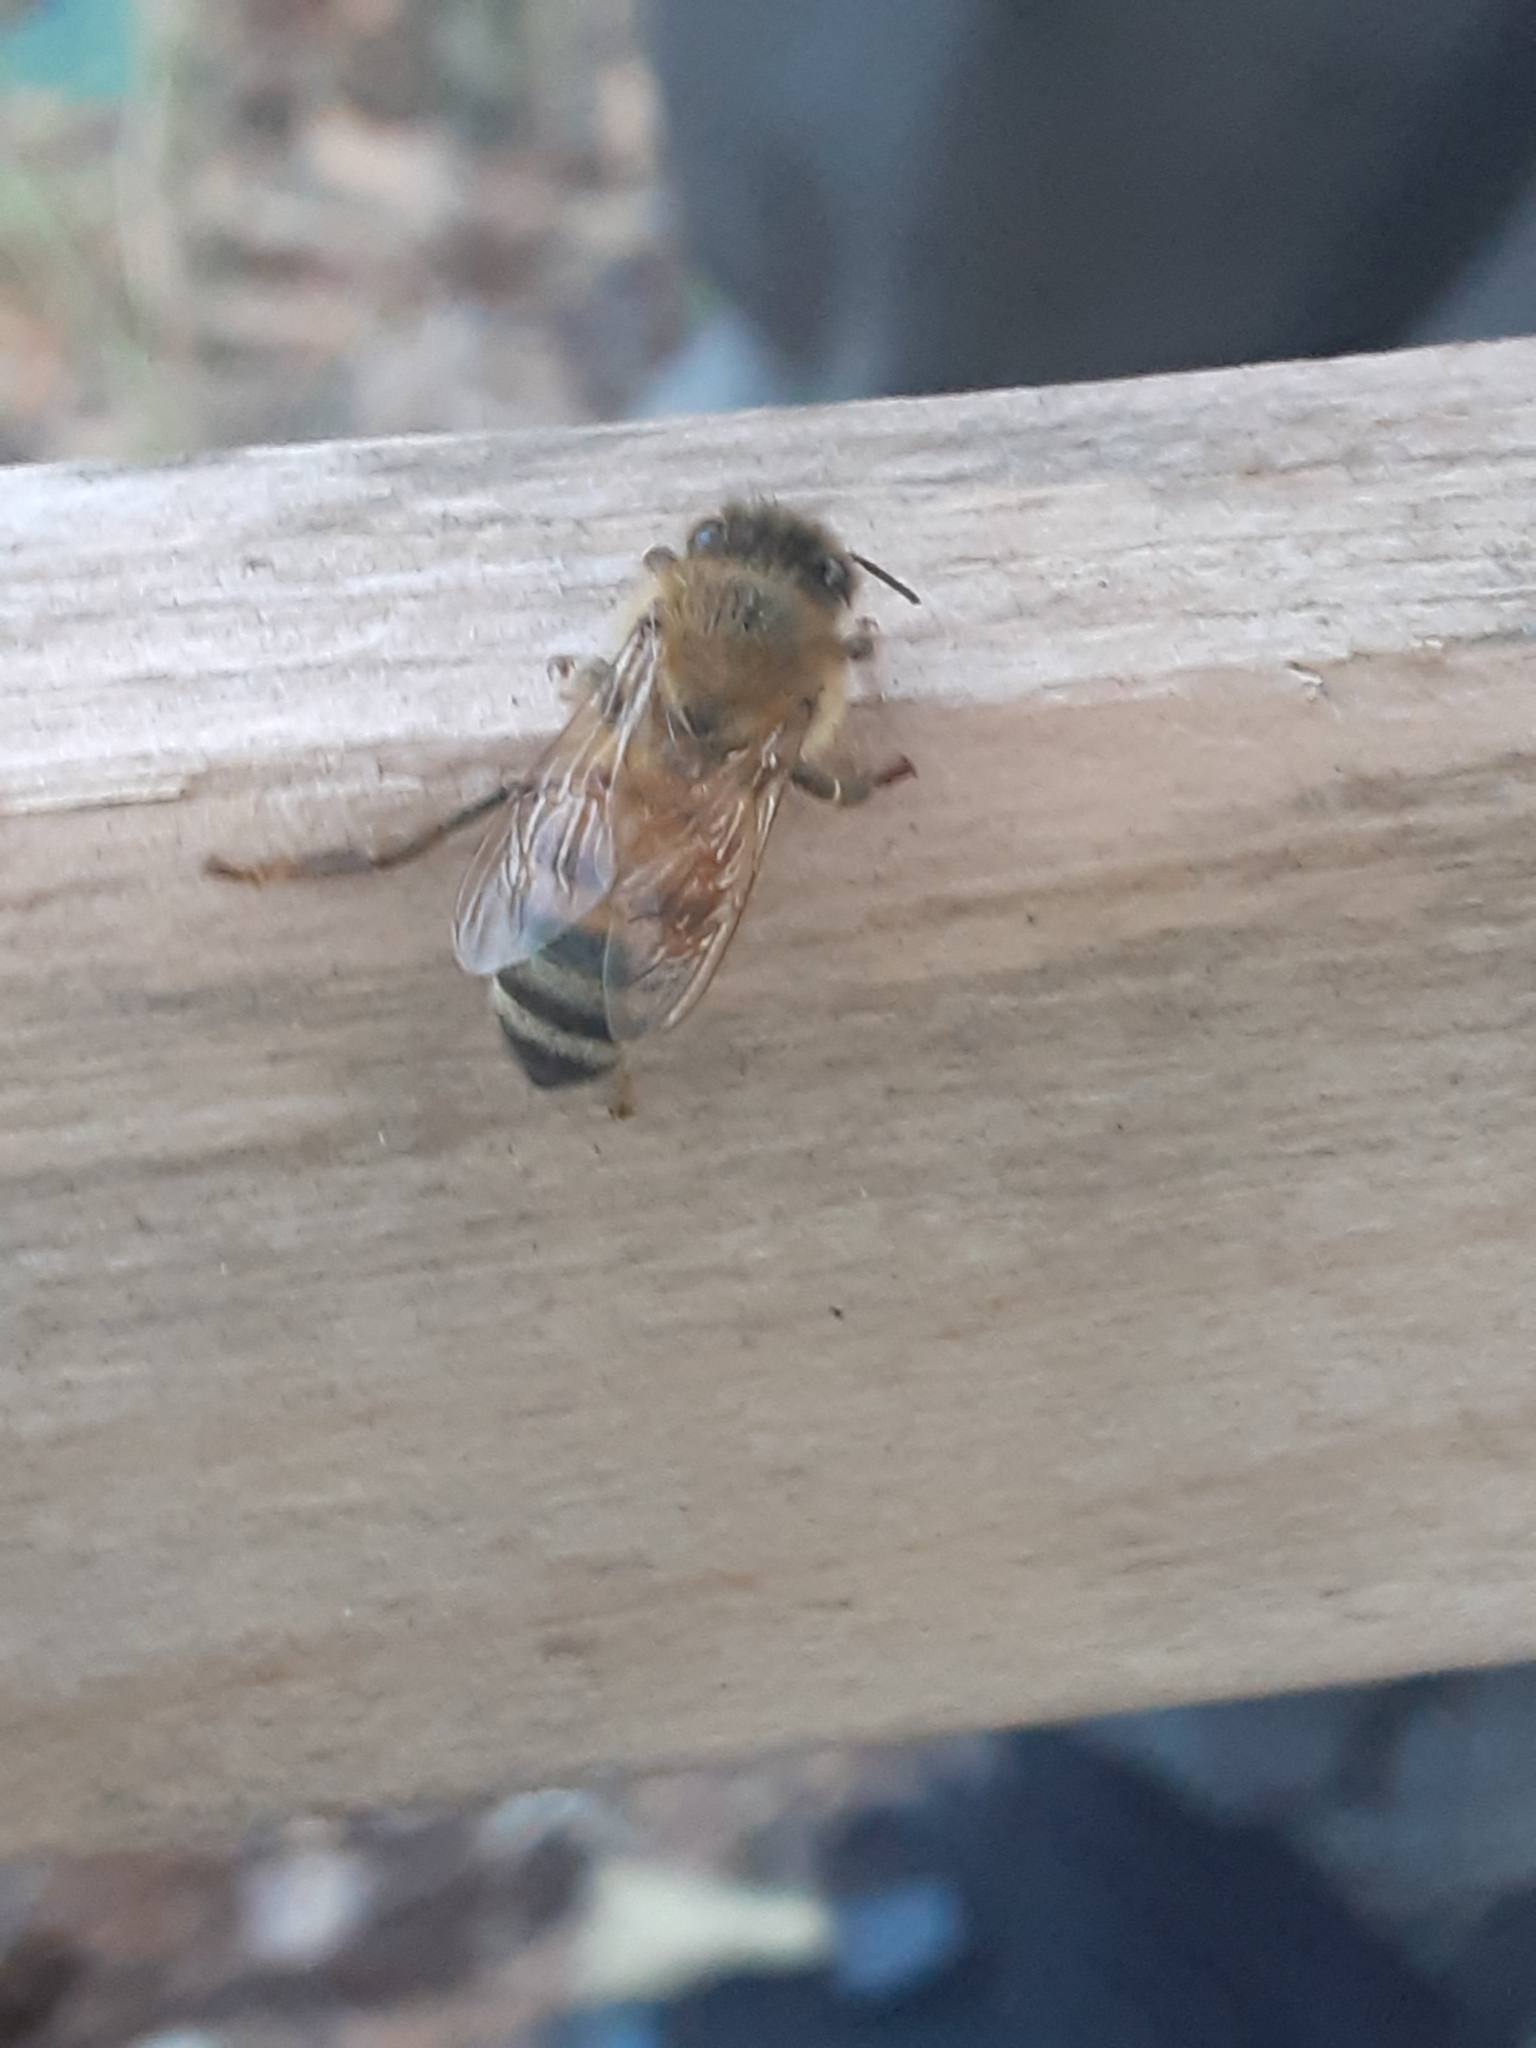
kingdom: Animalia
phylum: Arthropoda
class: Insecta
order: Hymenoptera
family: Apidae
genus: Apis
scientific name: Apis mellifera
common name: Honey bee
